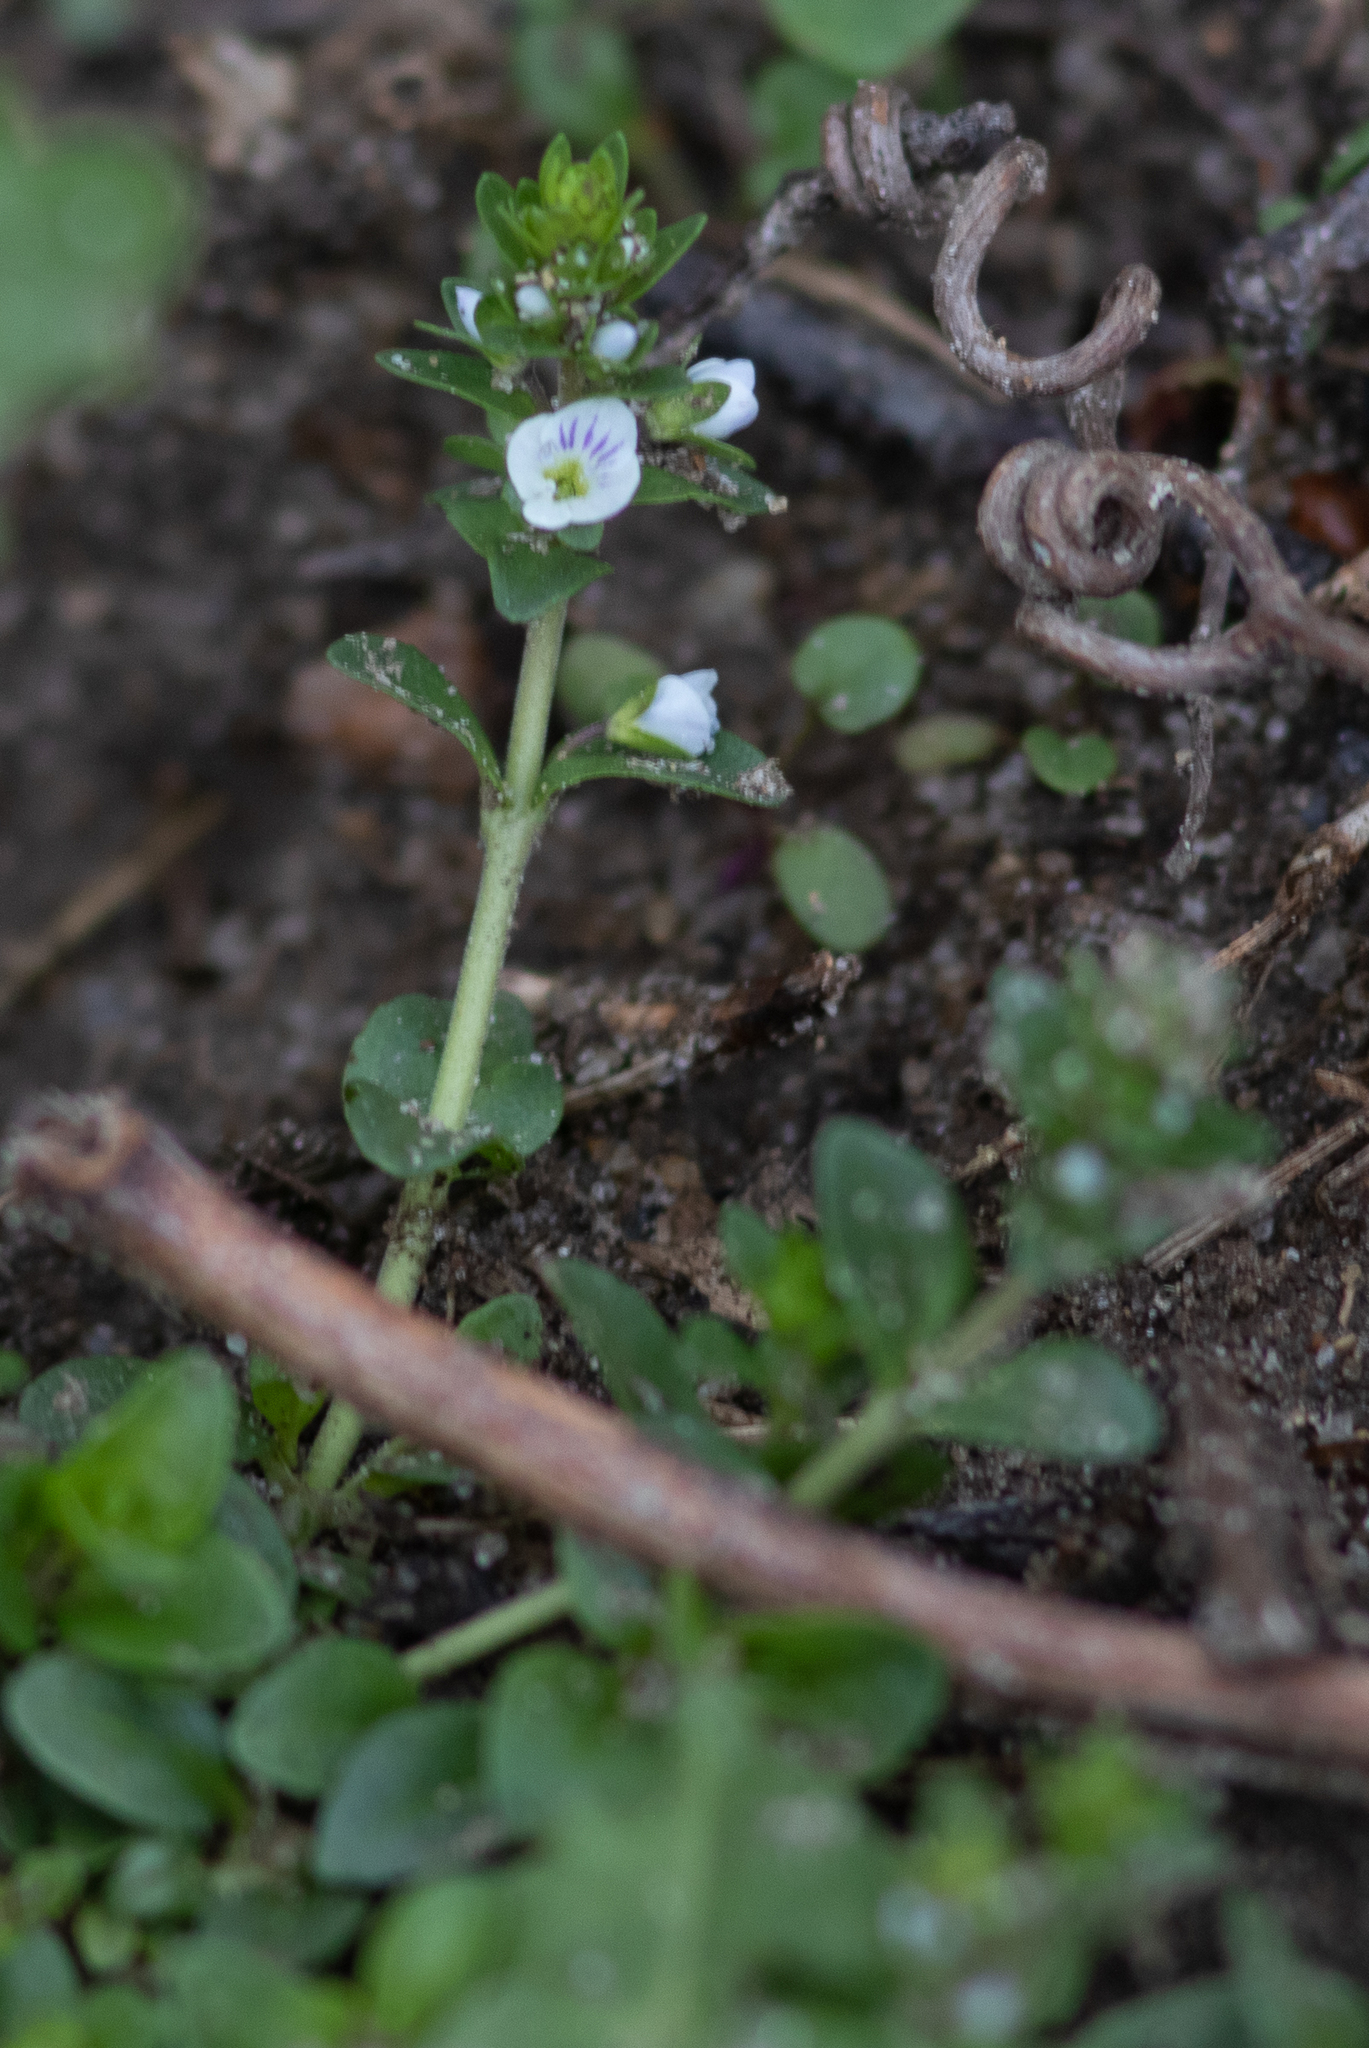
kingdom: Plantae
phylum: Tracheophyta
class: Magnoliopsida
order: Lamiales
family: Plantaginaceae
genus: Veronica
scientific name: Veronica serpyllifolia
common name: Thyme-leaved speedwell
